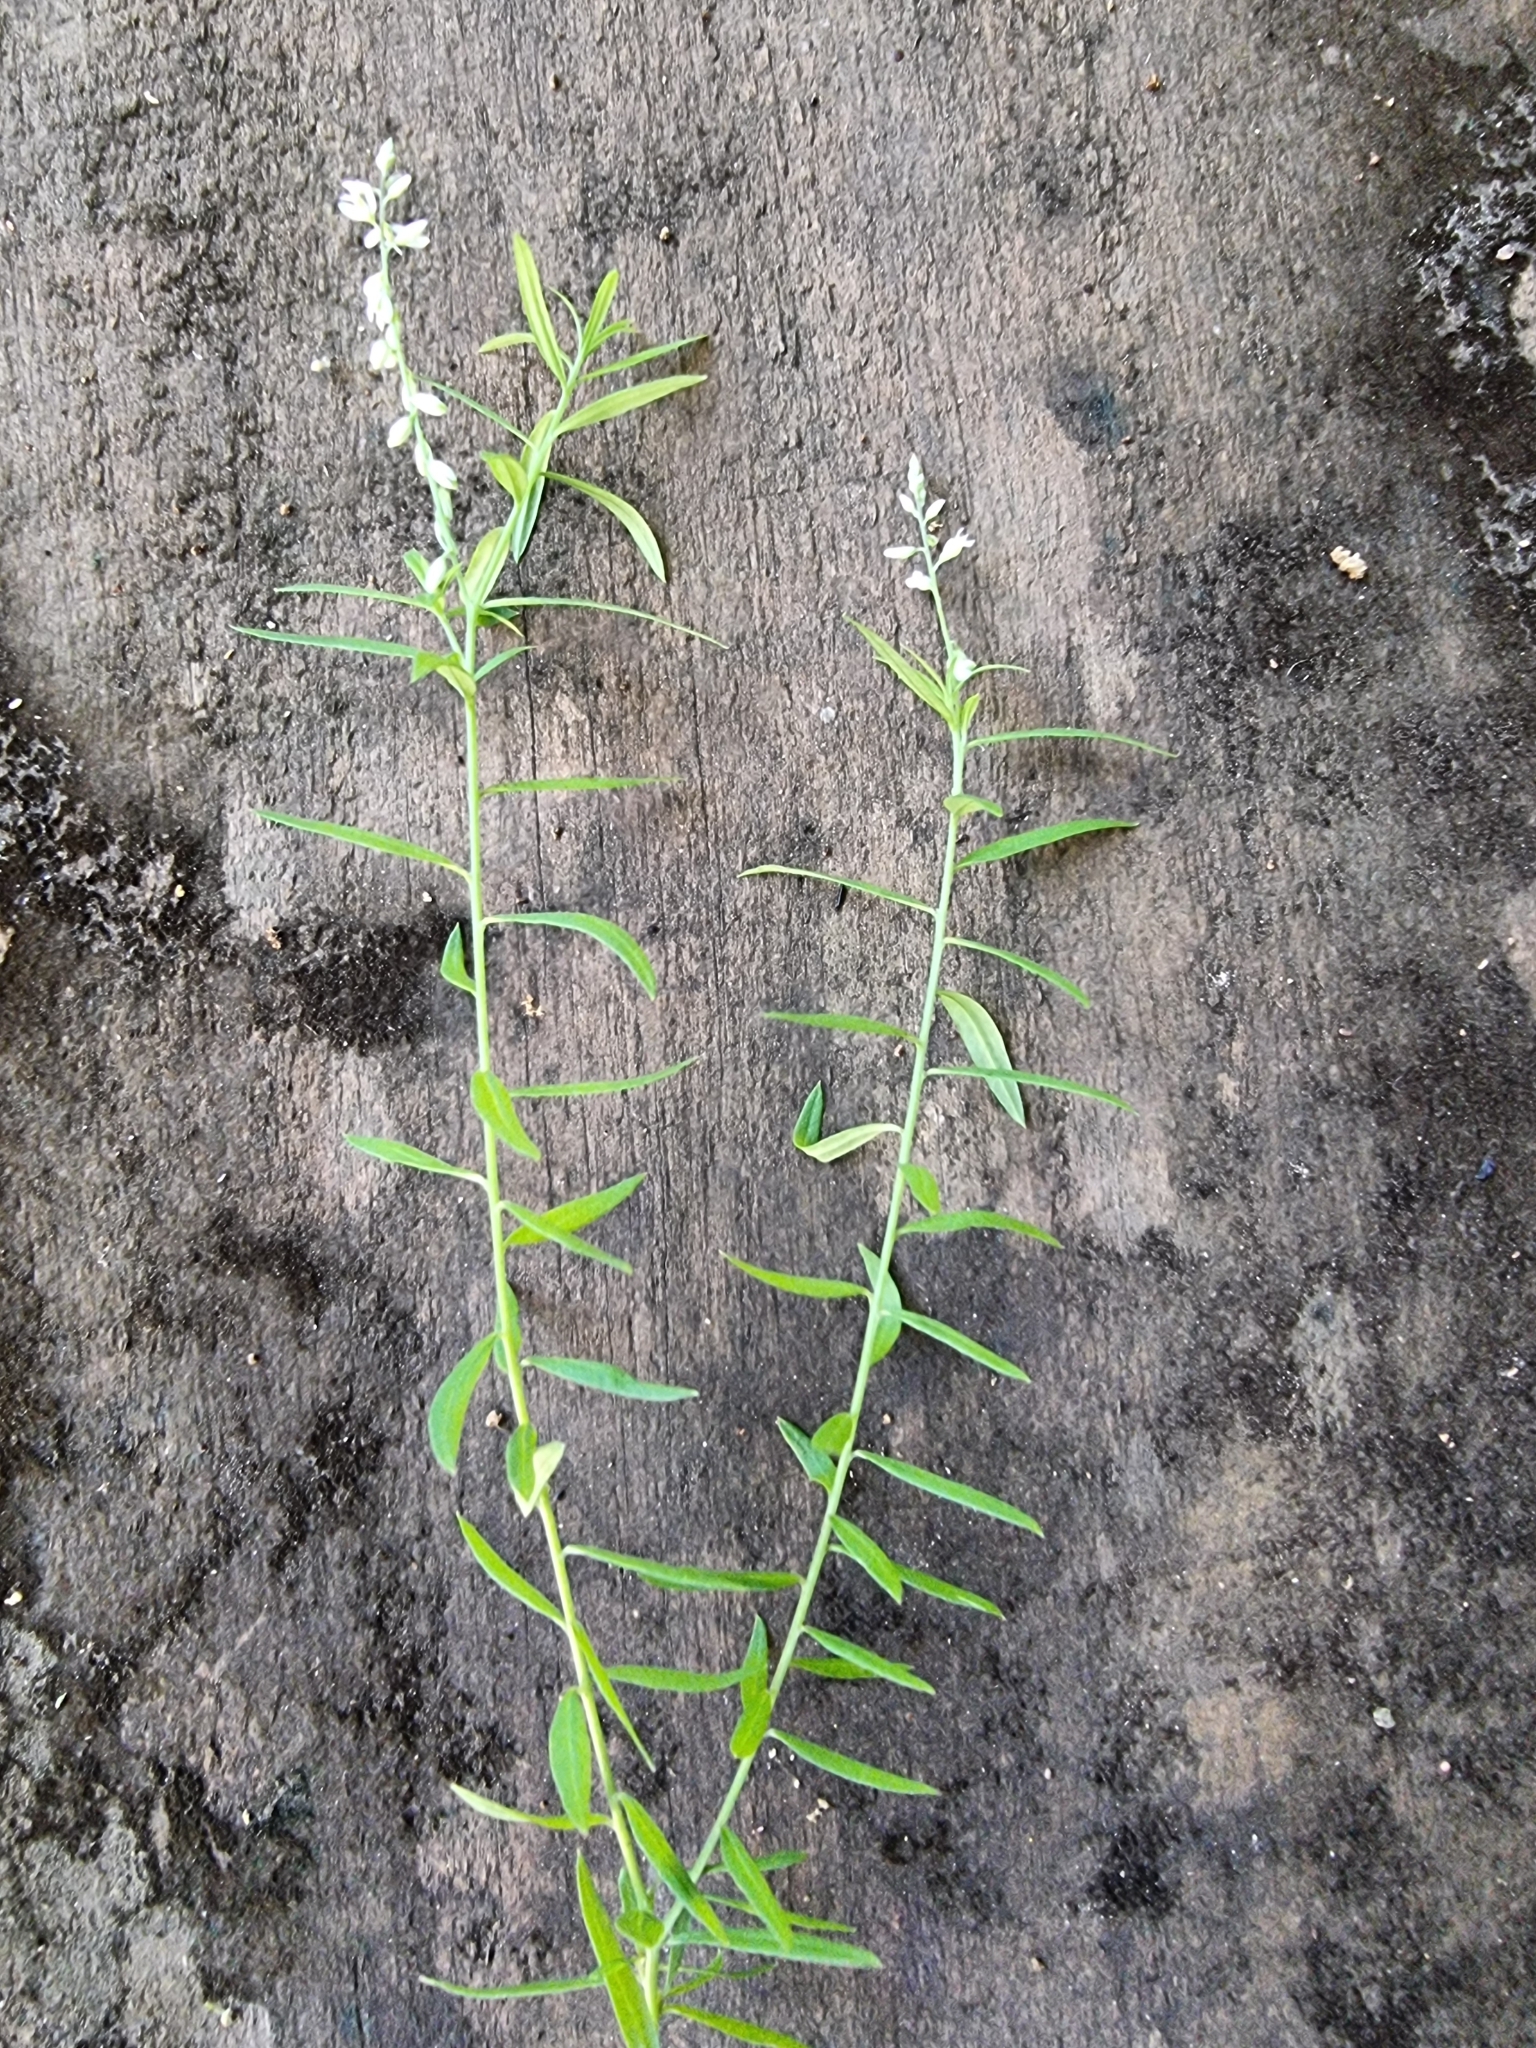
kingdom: Plantae
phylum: Tracheophyta
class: Magnoliopsida
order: Fabales
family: Polygalaceae
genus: Polygala
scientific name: Polygala paniculata
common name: Orosne
